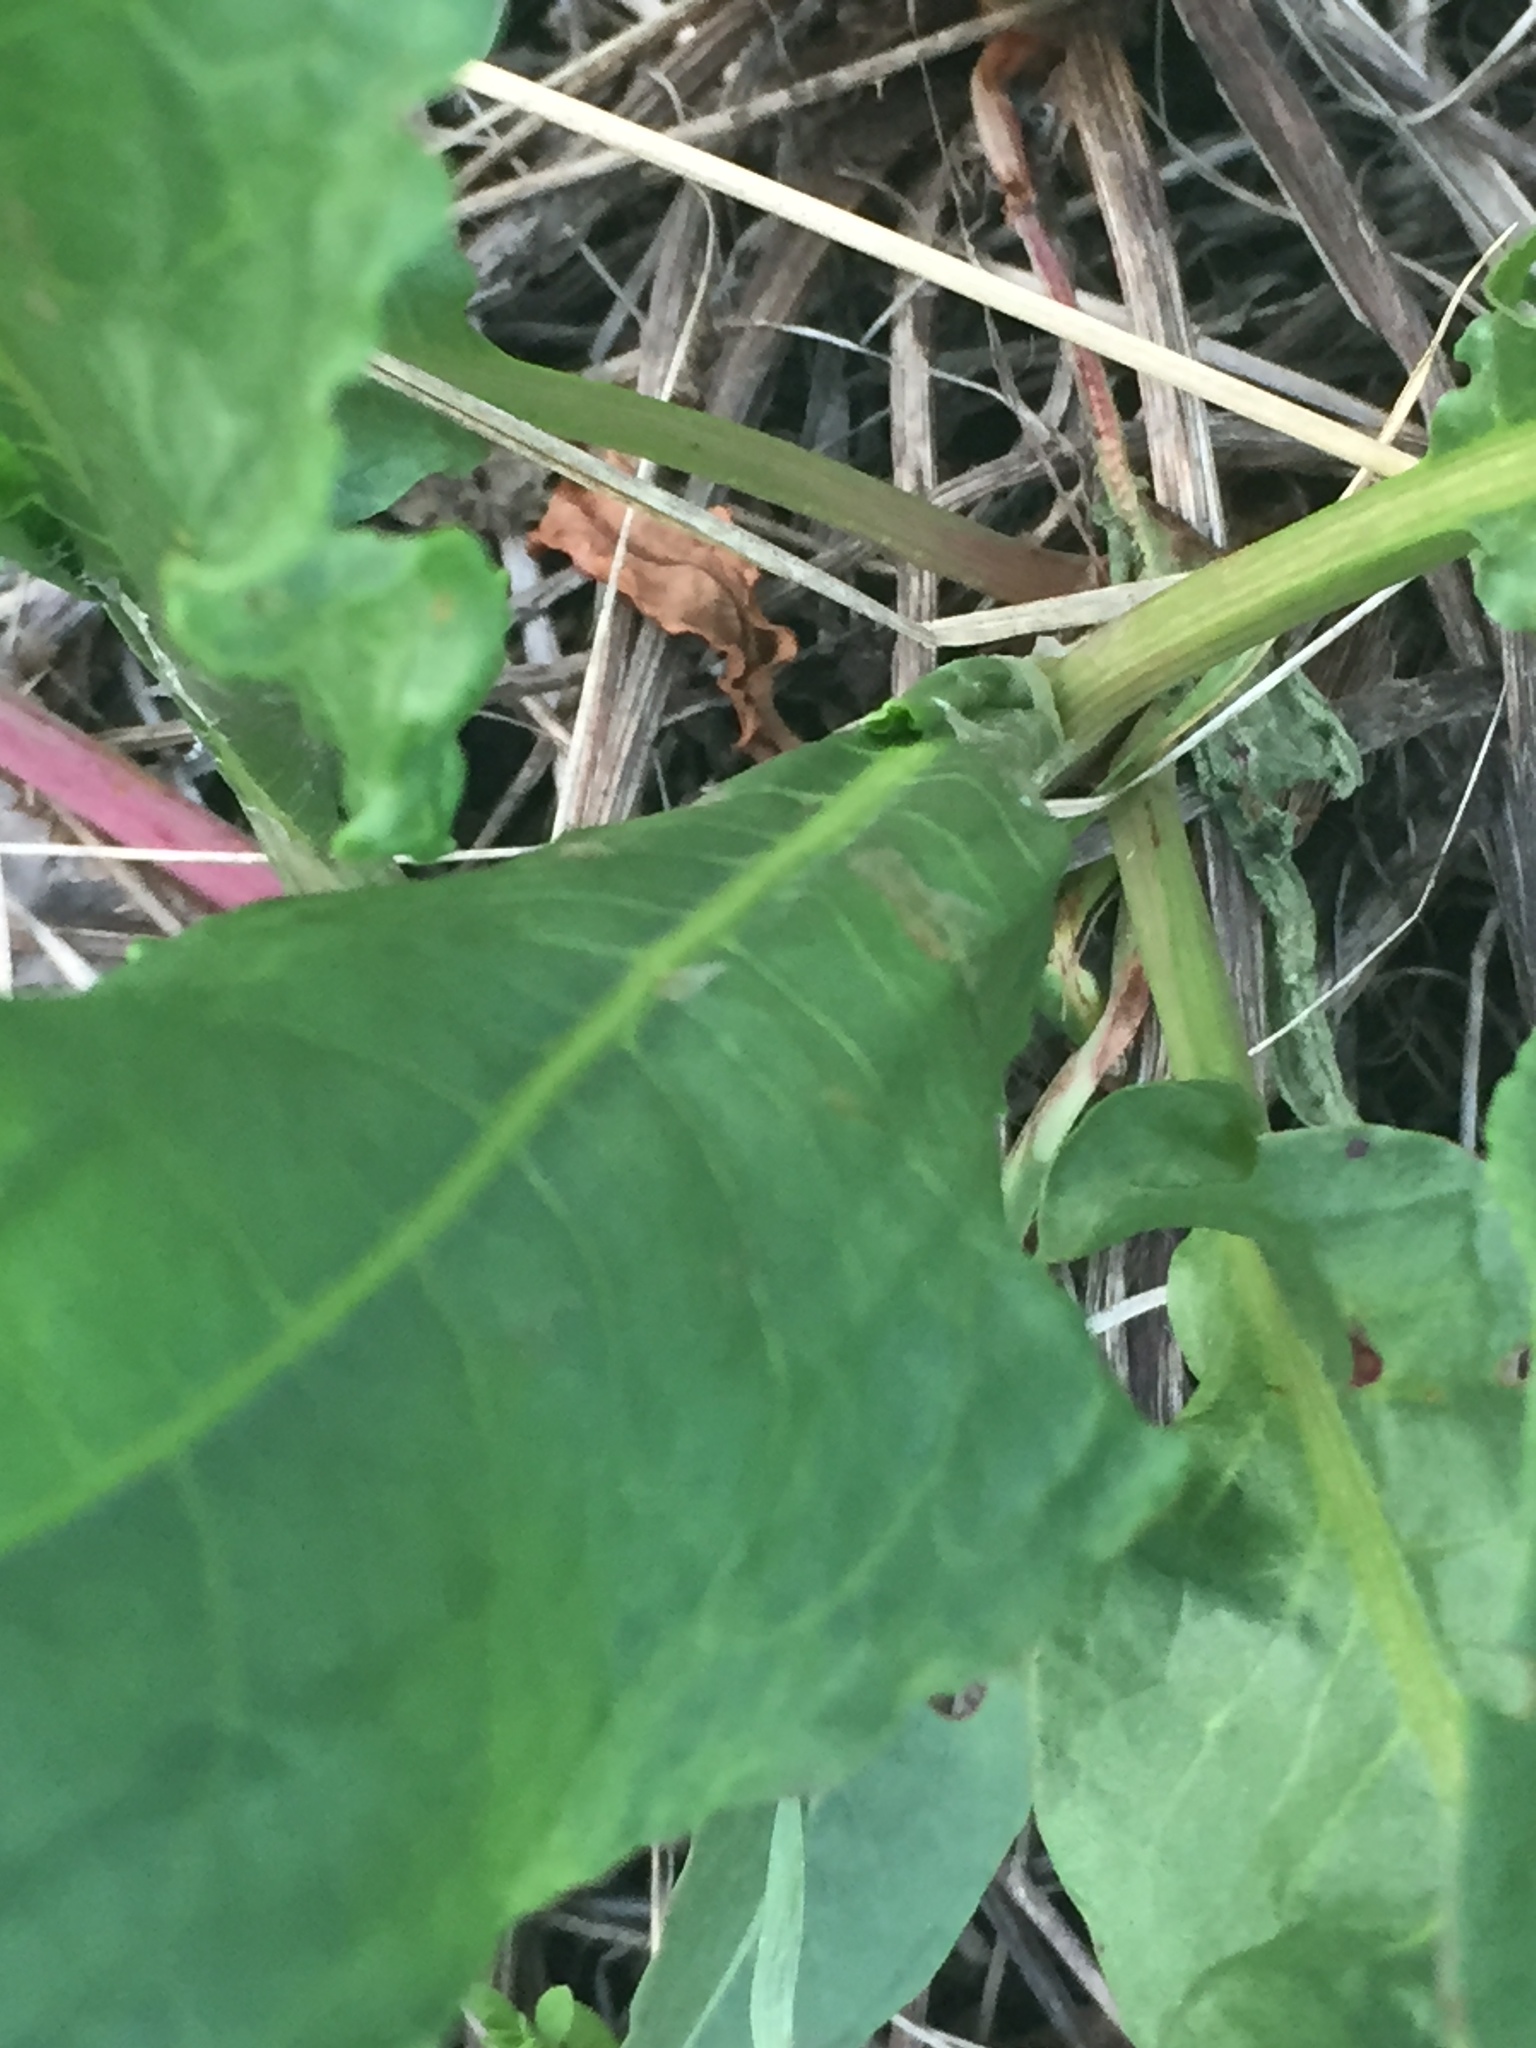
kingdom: Plantae
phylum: Tracheophyta
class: Magnoliopsida
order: Caryophyllales
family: Polygonaceae
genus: Rumex
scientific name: Rumex crispus
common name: Curled dock
